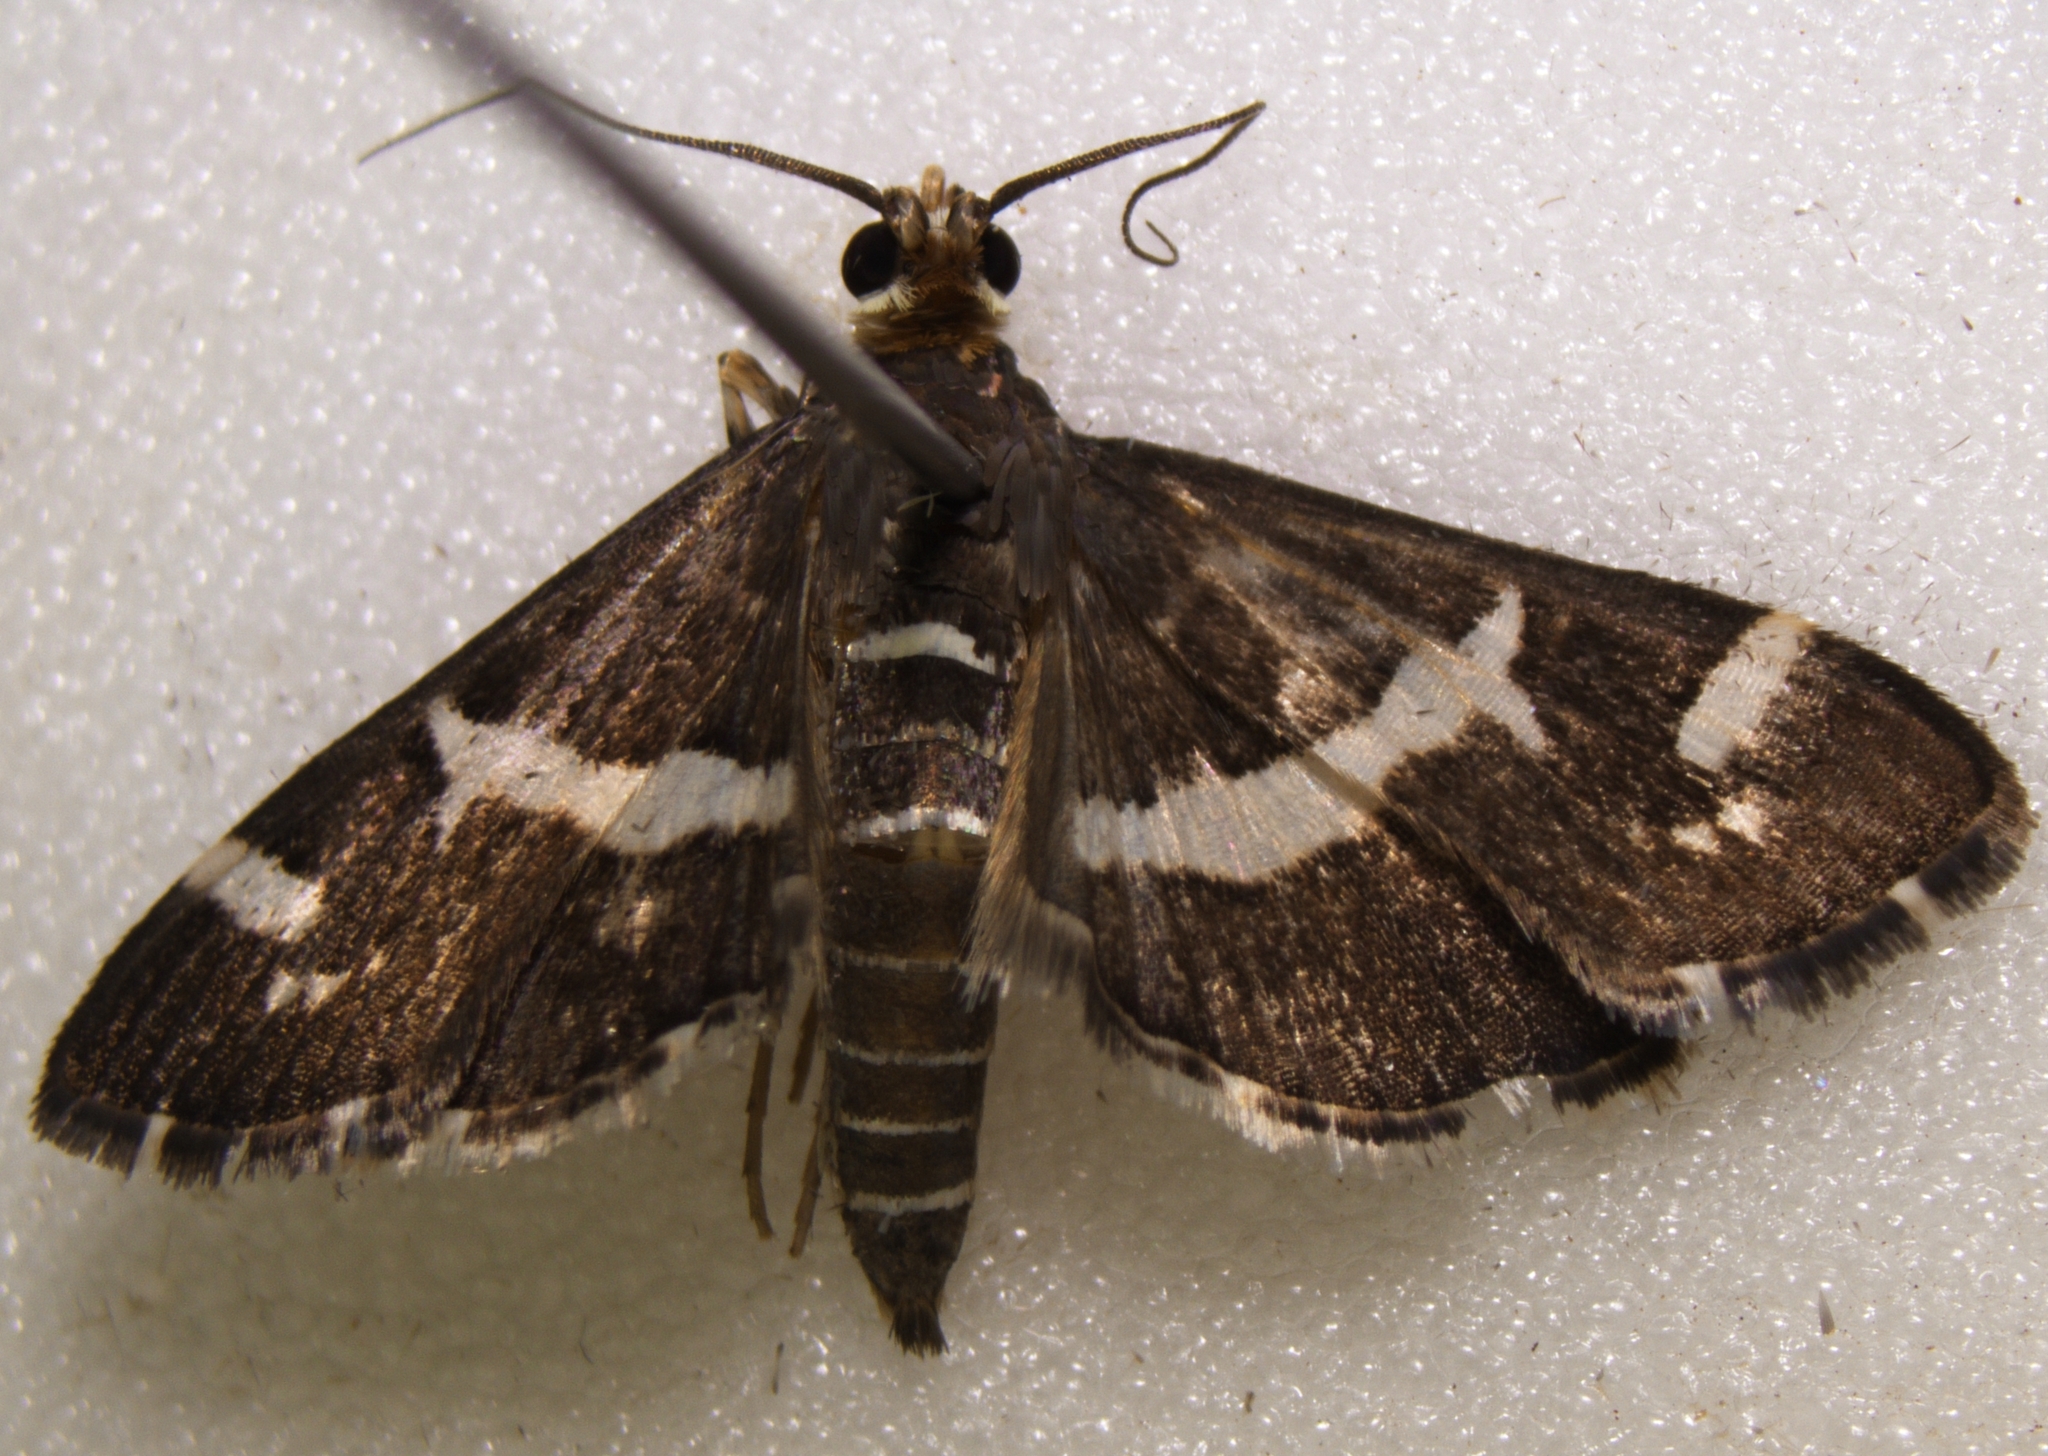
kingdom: Animalia
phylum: Arthropoda
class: Insecta
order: Lepidoptera
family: Crambidae
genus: Spoladea
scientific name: Spoladea recurvalis
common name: Beet webworm moth
